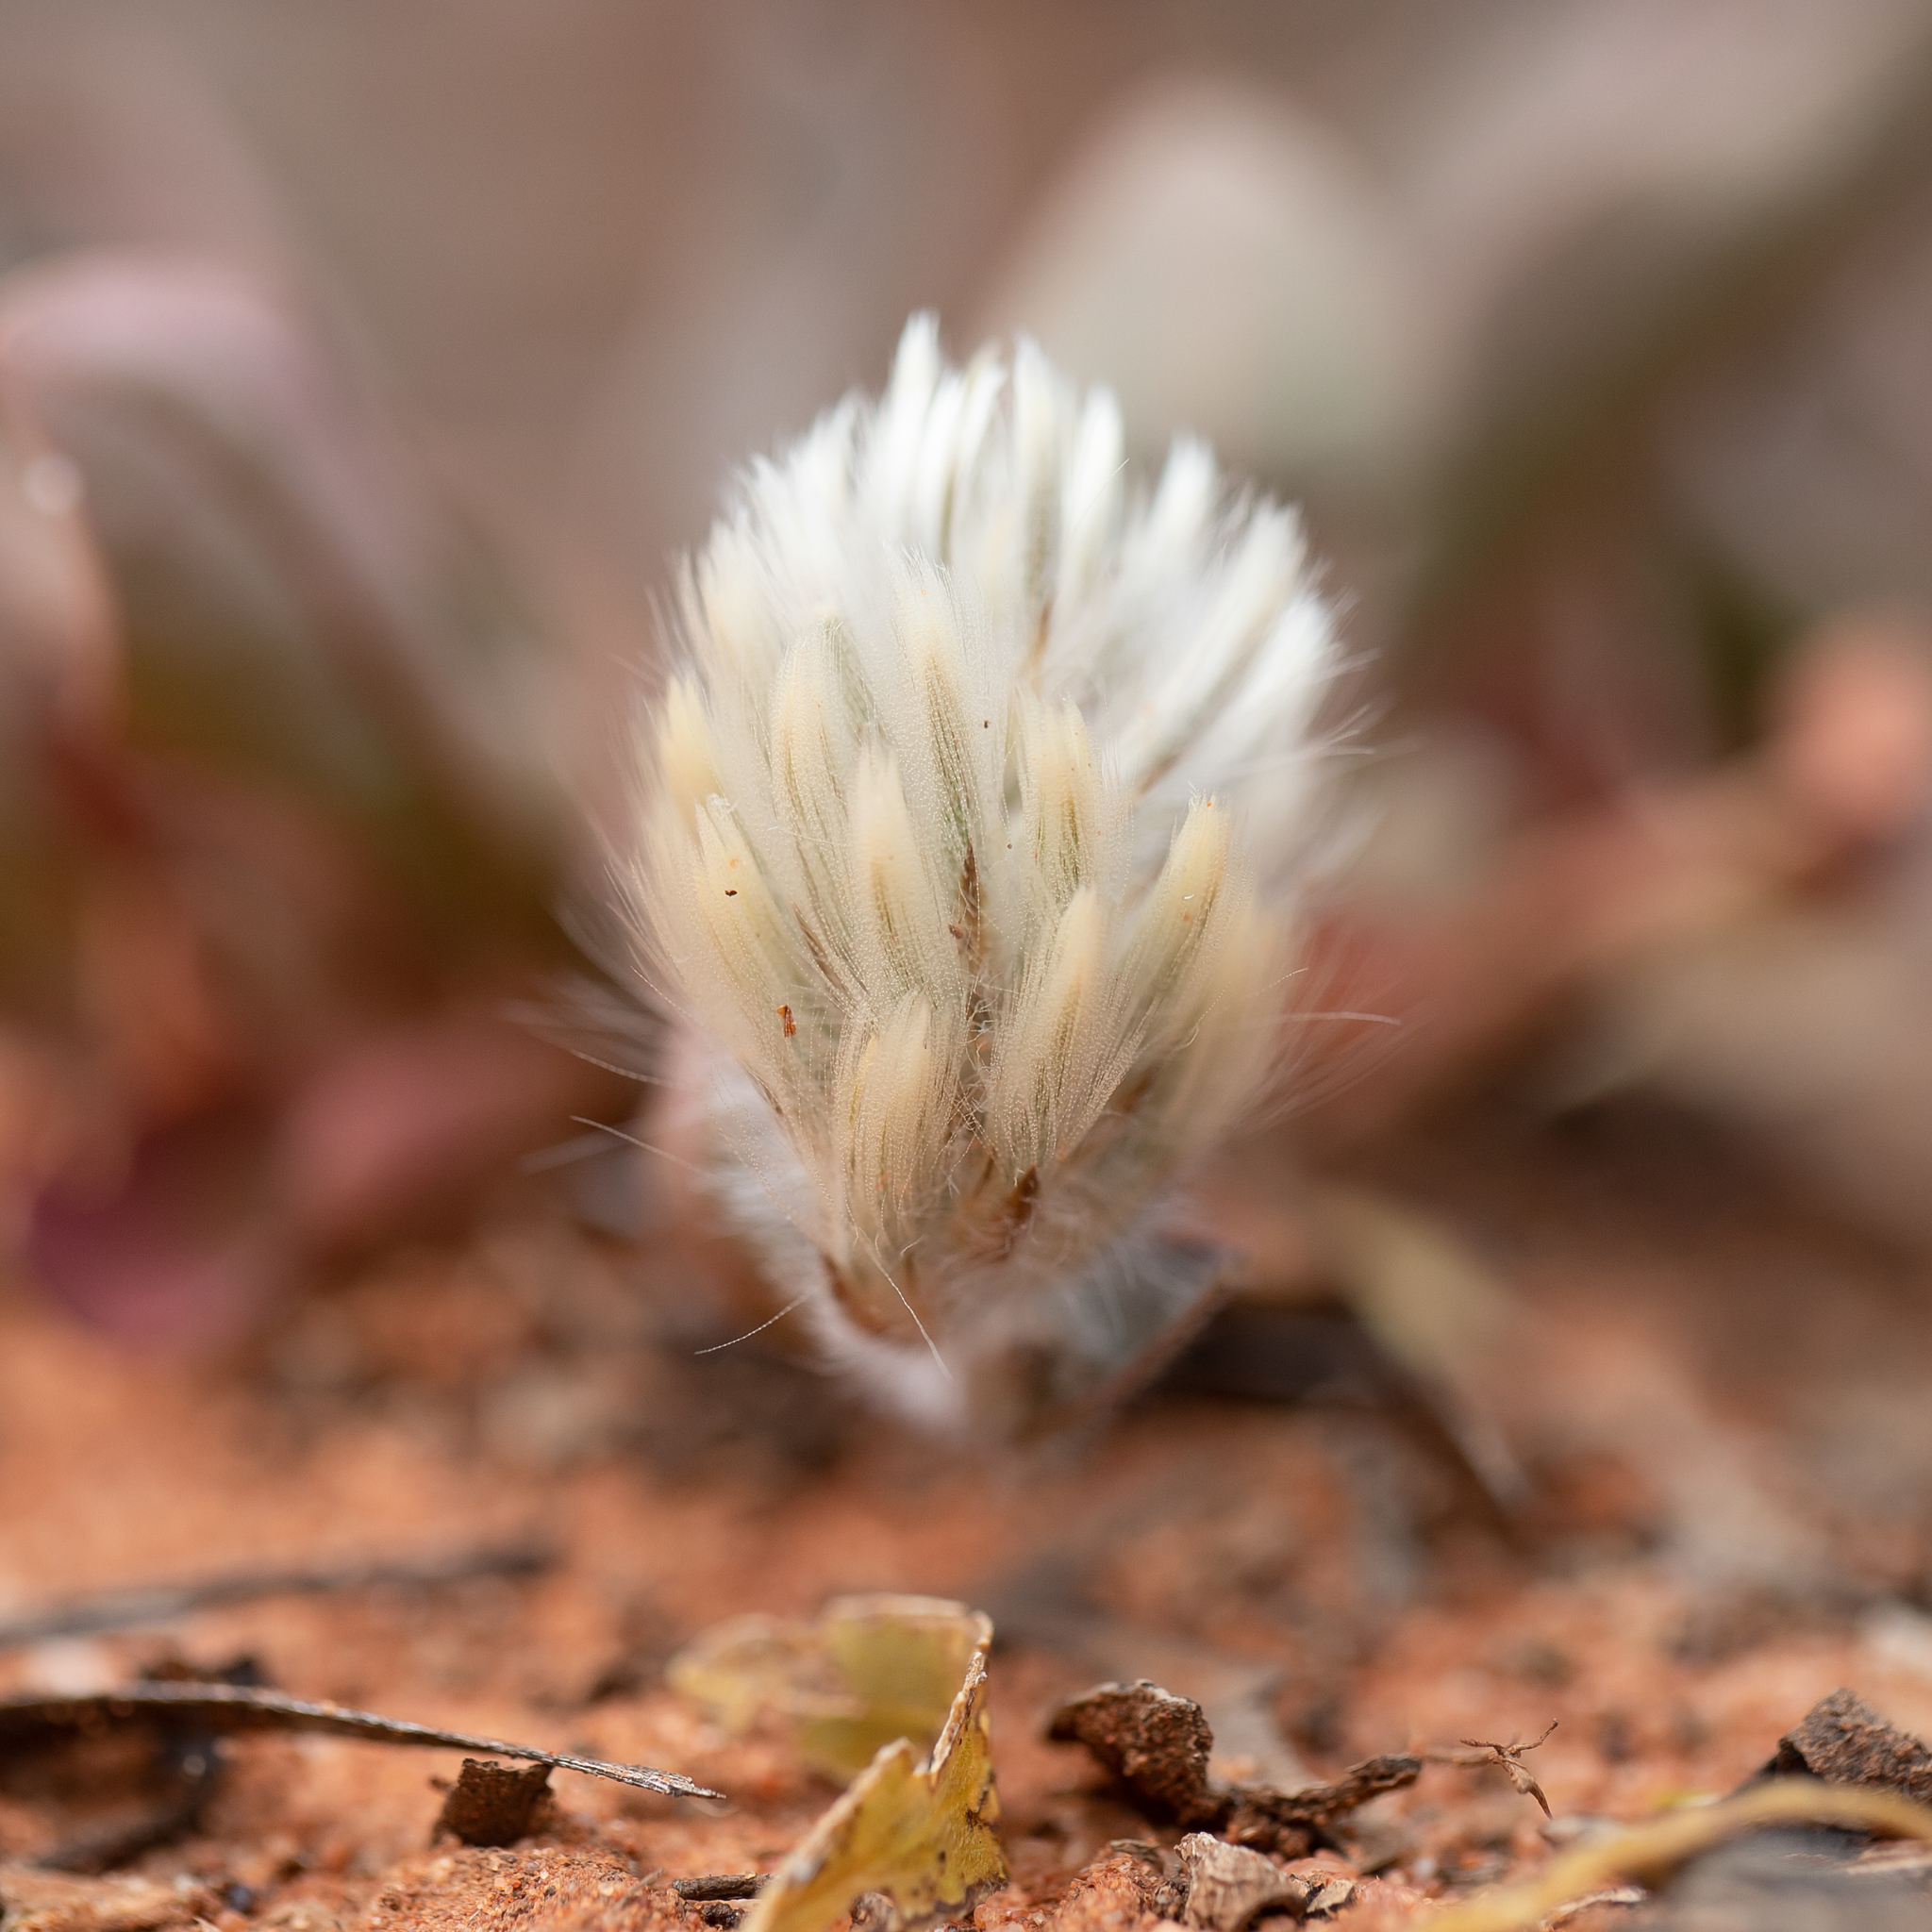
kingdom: Plantae
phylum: Tracheophyta
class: Magnoliopsida
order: Caryophyllales
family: Amaranthaceae
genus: Ptilotus
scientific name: Ptilotus seminudus
